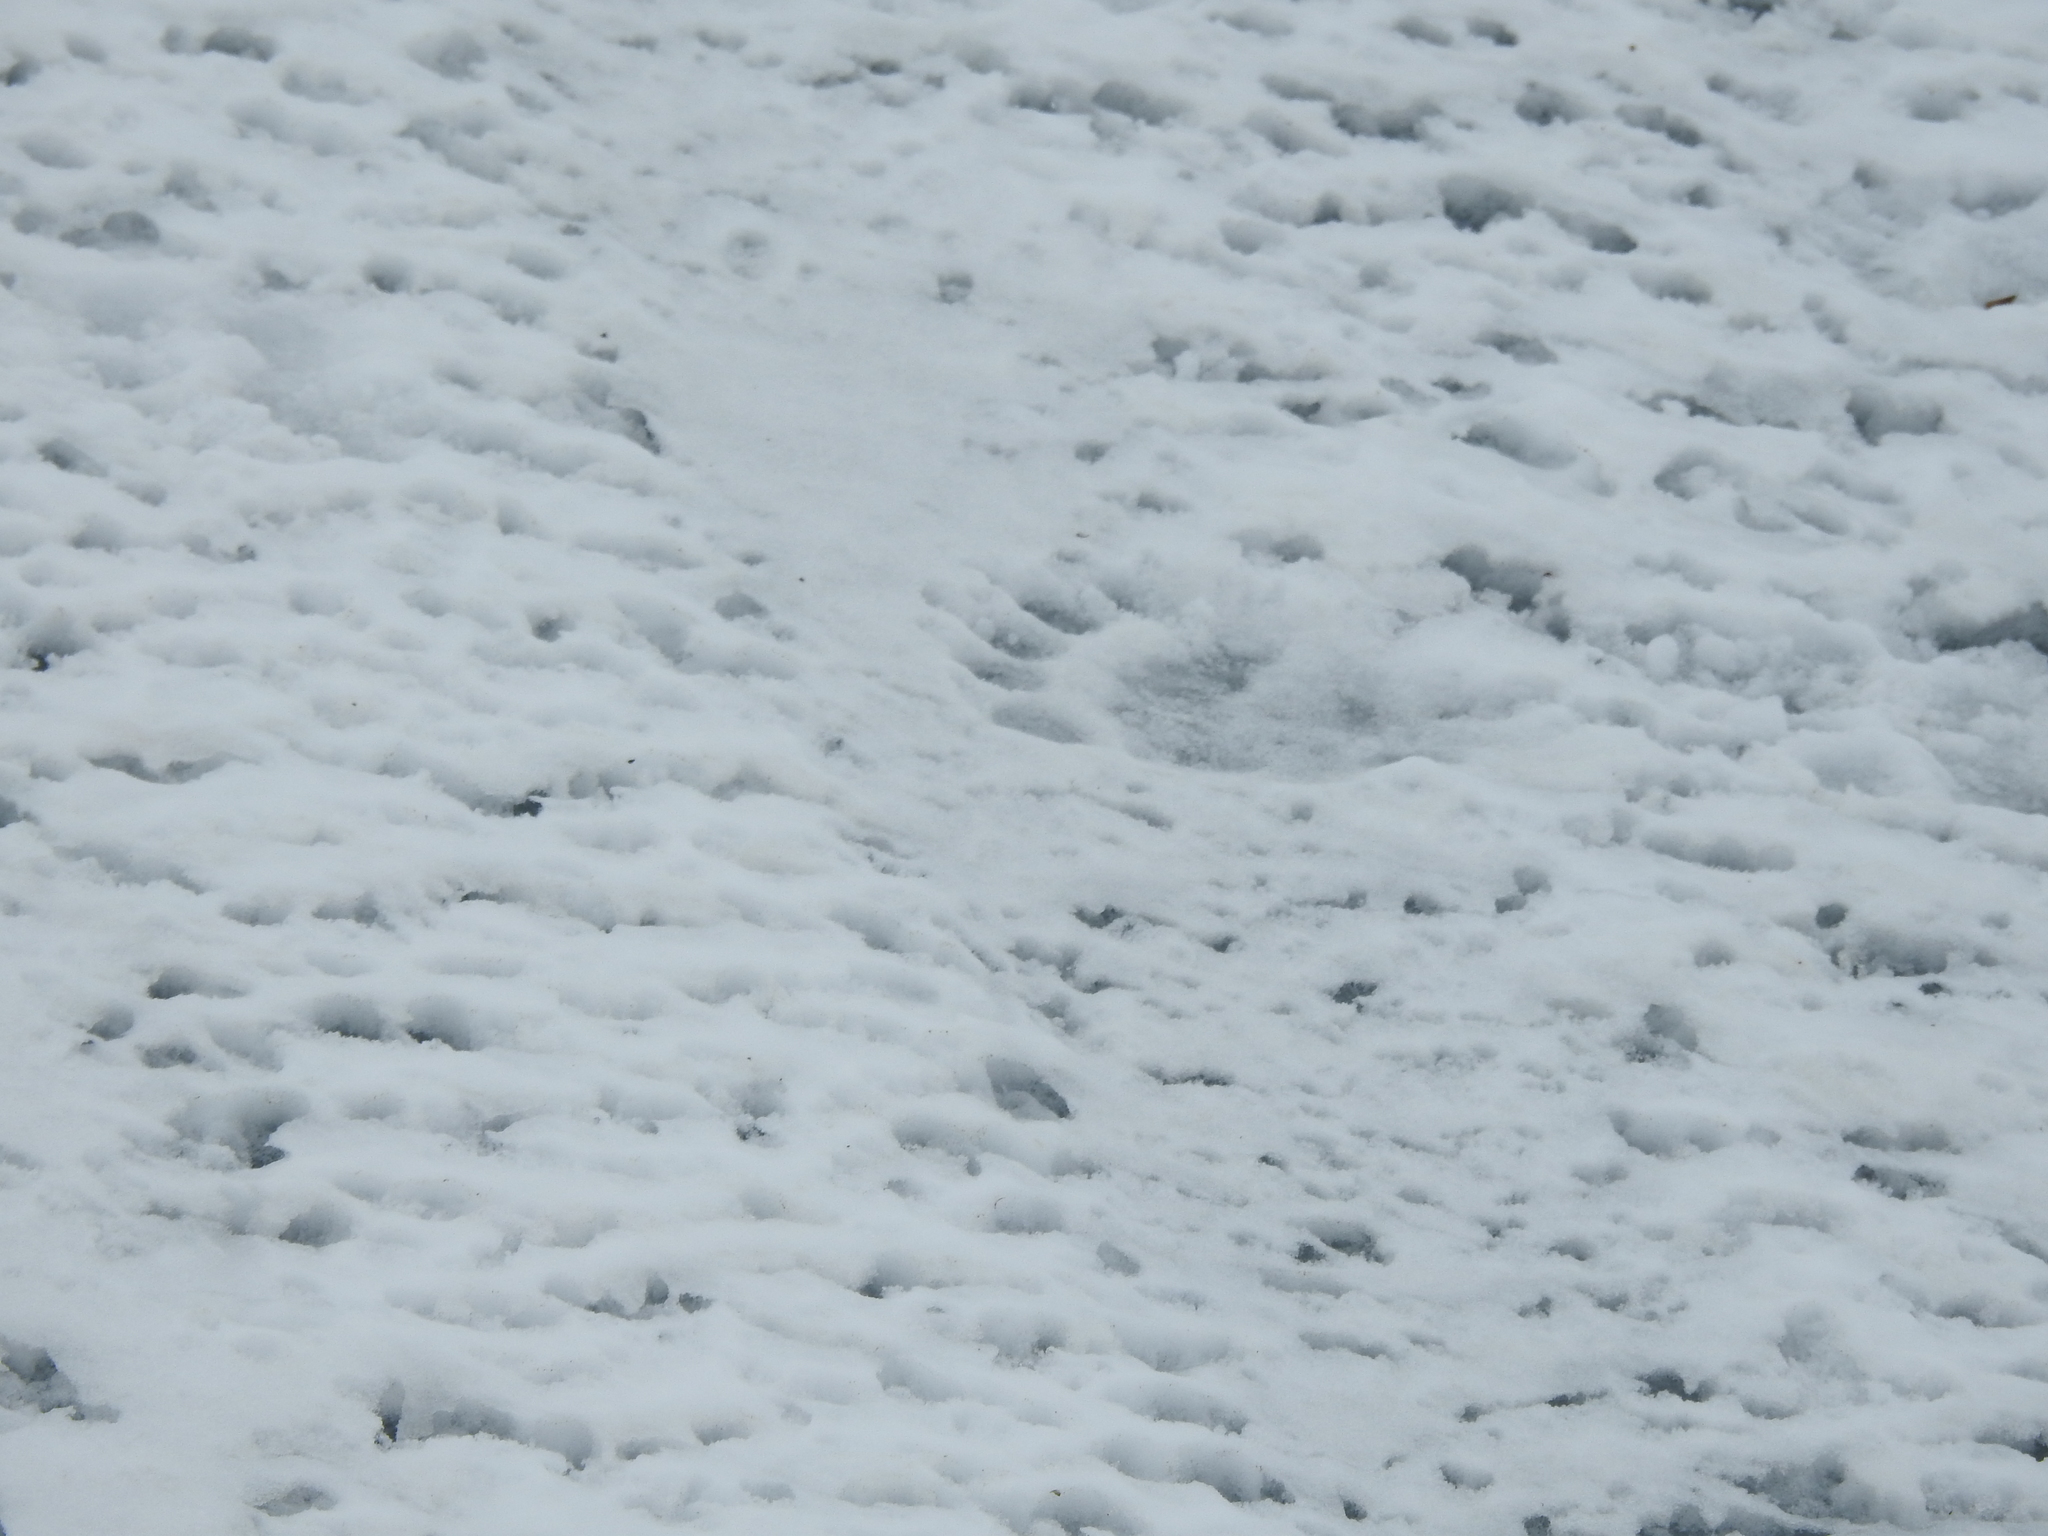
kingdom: Animalia
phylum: Chordata
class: Mammalia
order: Carnivora
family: Ursidae
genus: Ursus
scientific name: Ursus maritimus
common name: Polar bear
